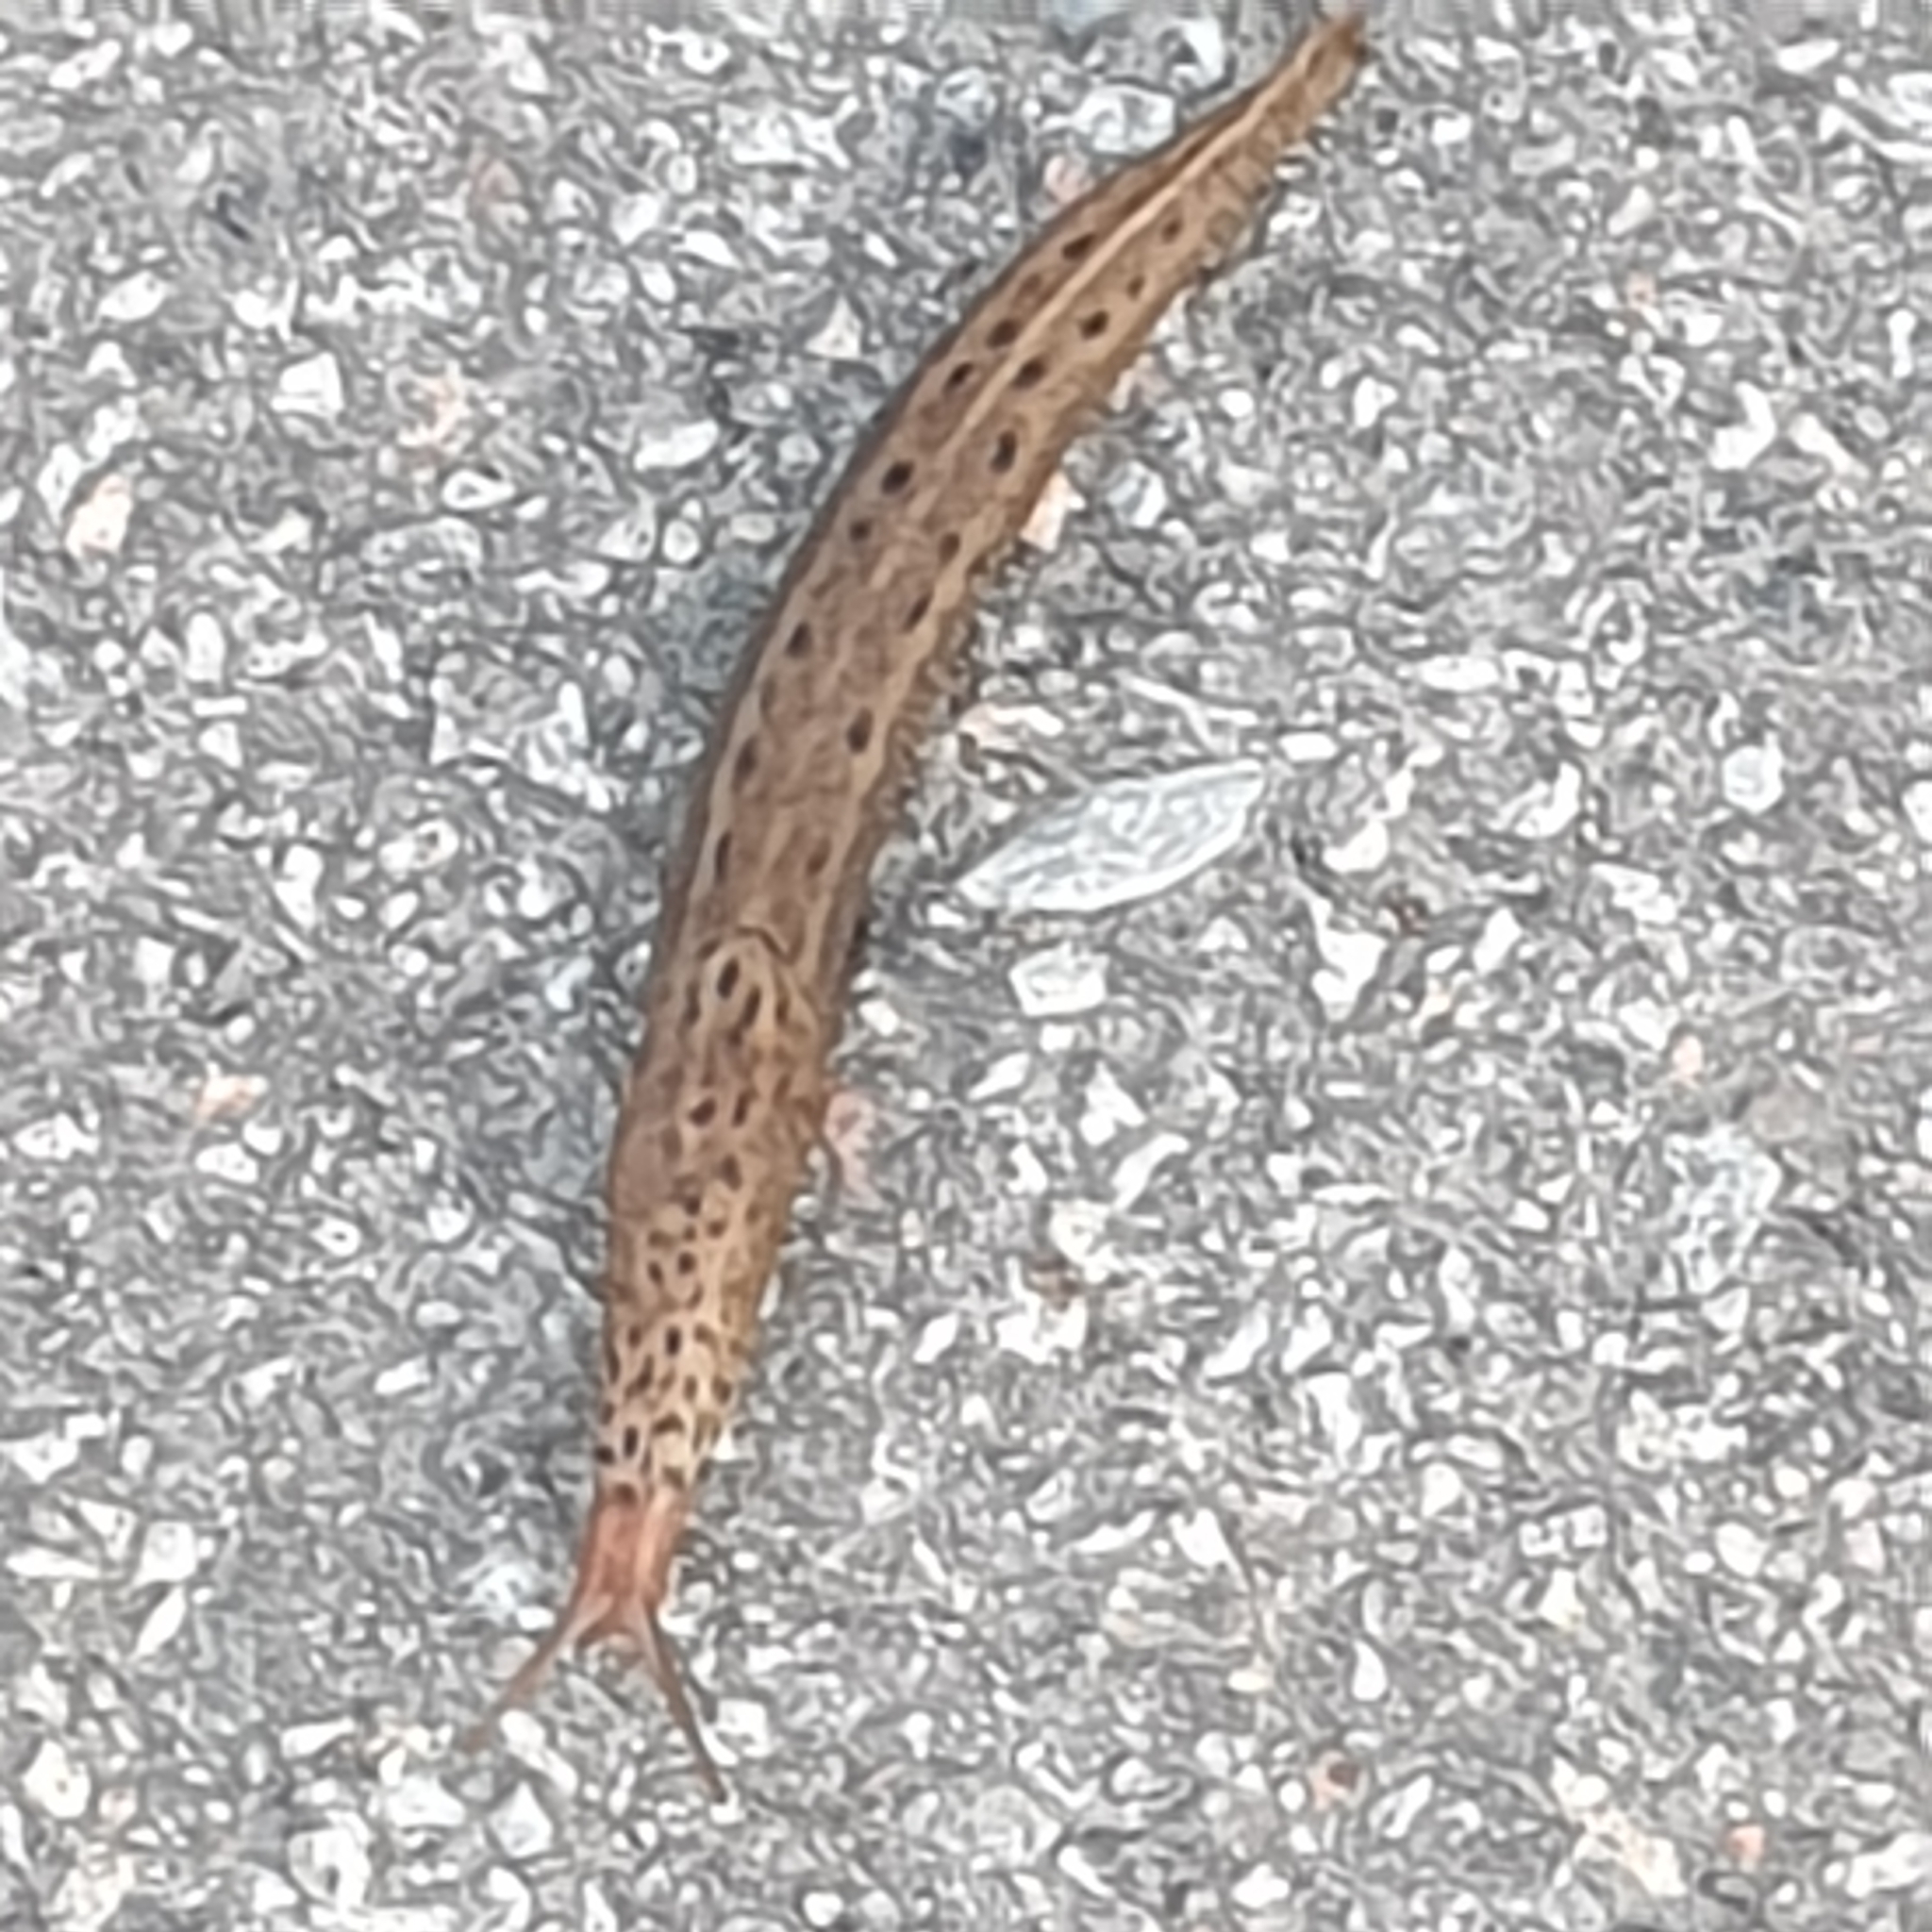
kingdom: Animalia
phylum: Mollusca
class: Gastropoda
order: Stylommatophora
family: Limacidae
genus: Limax
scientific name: Limax maximus
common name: Great grey slug
